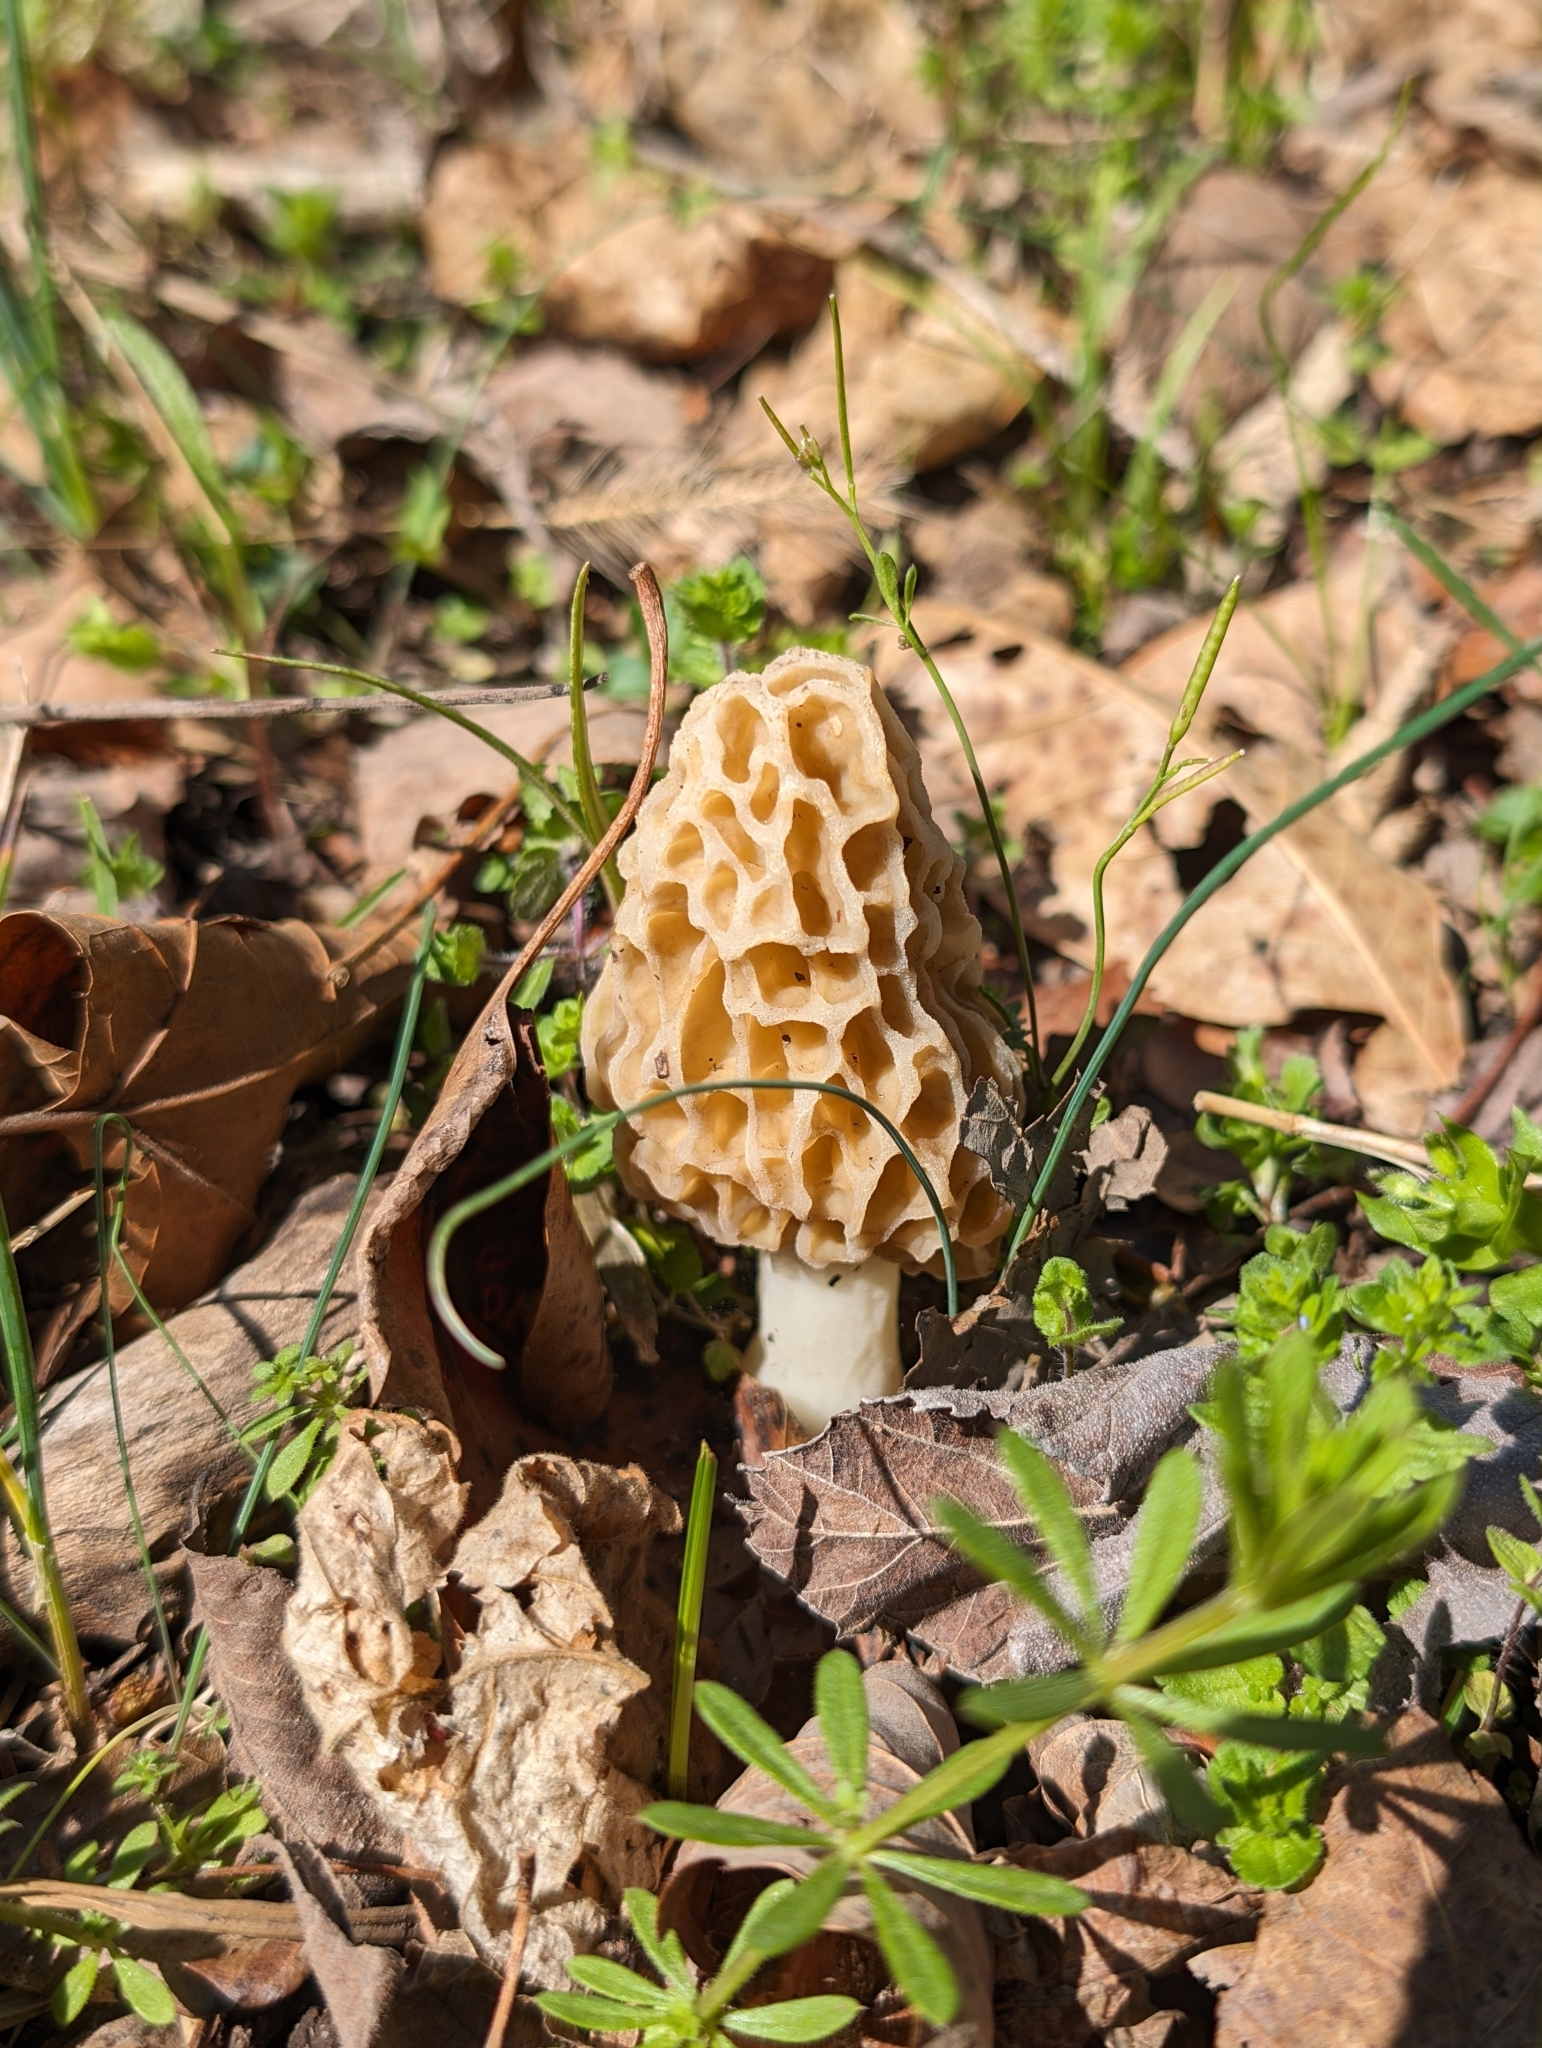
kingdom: Fungi
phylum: Ascomycota
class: Pezizomycetes
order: Pezizales
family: Morchellaceae
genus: Morchella
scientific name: Morchella americana
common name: White morel
